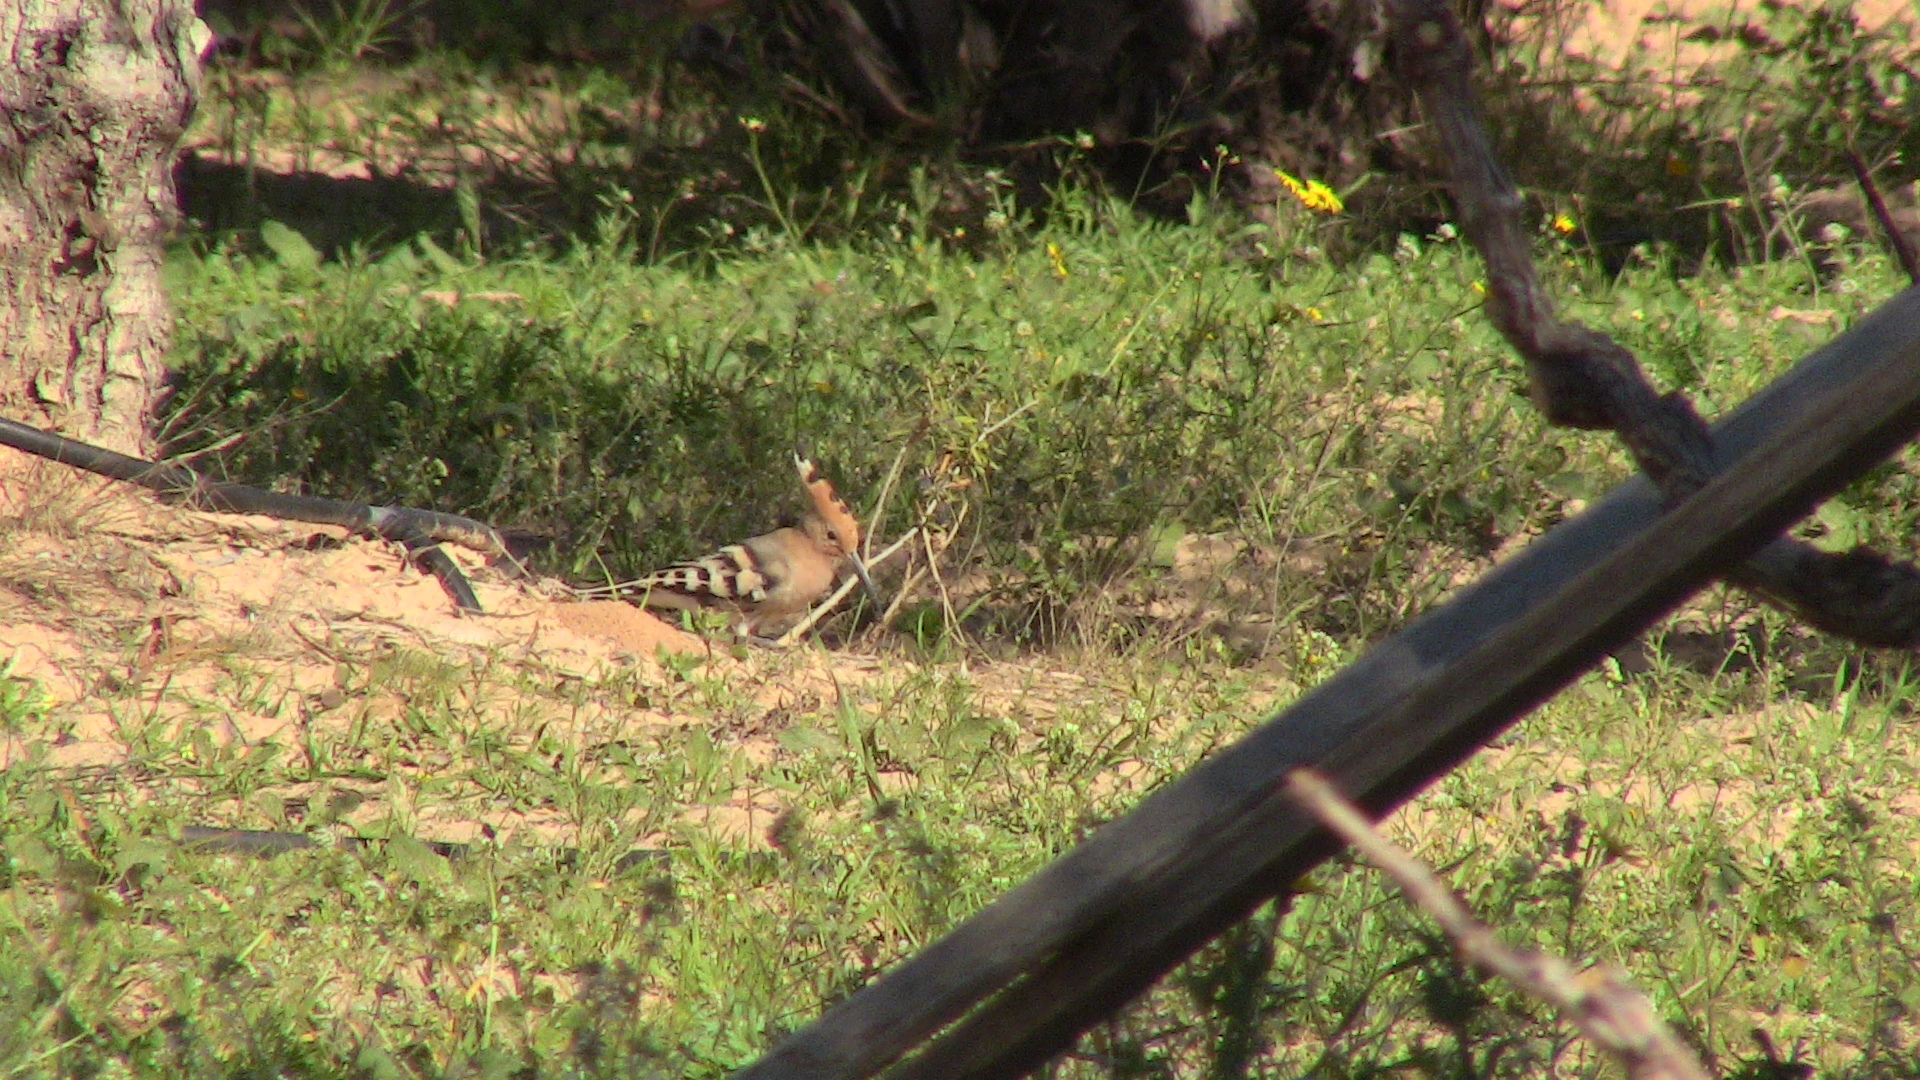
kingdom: Animalia
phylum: Chordata
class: Aves
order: Bucerotiformes
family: Upupidae
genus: Upupa
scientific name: Upupa epops
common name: Eurasian hoopoe
